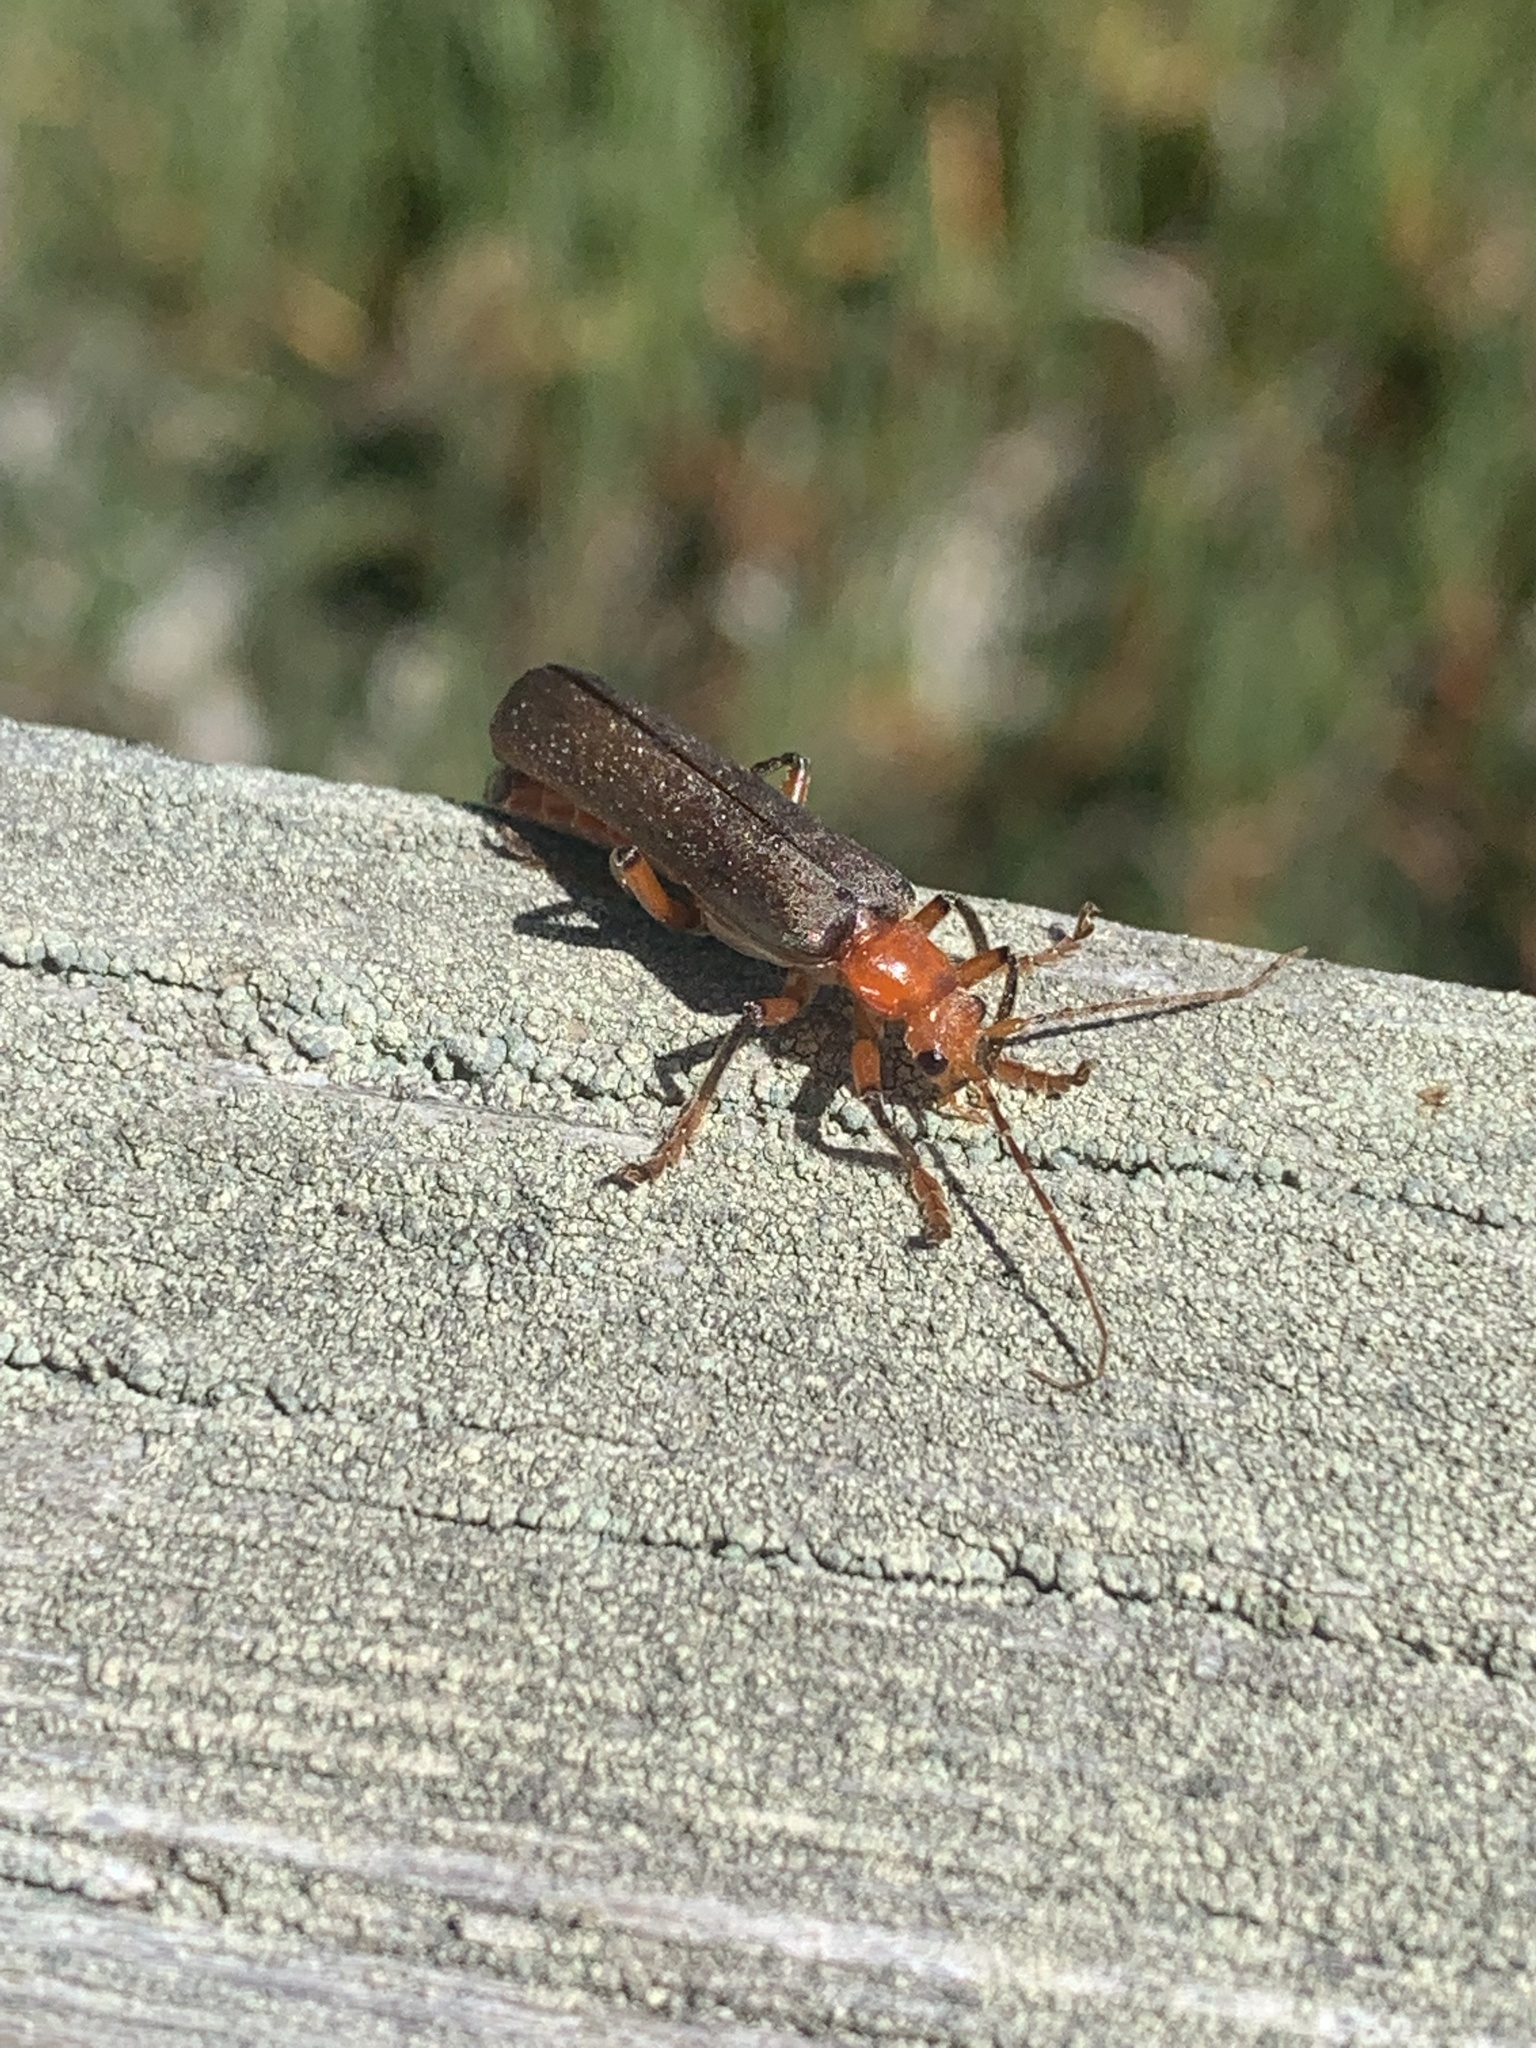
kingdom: Animalia
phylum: Arthropoda
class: Insecta
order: Coleoptera
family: Cantharidae
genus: Pacificanthia
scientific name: Pacificanthia consors
